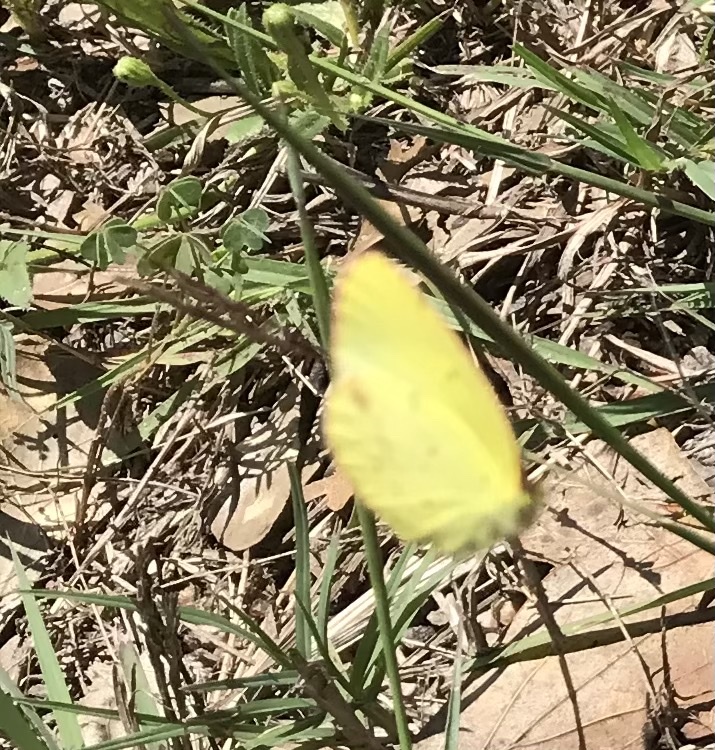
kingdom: Animalia
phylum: Arthropoda
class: Insecta
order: Lepidoptera
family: Pieridae
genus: Pyrisitia
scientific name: Pyrisitia lisa
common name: Little yellow
